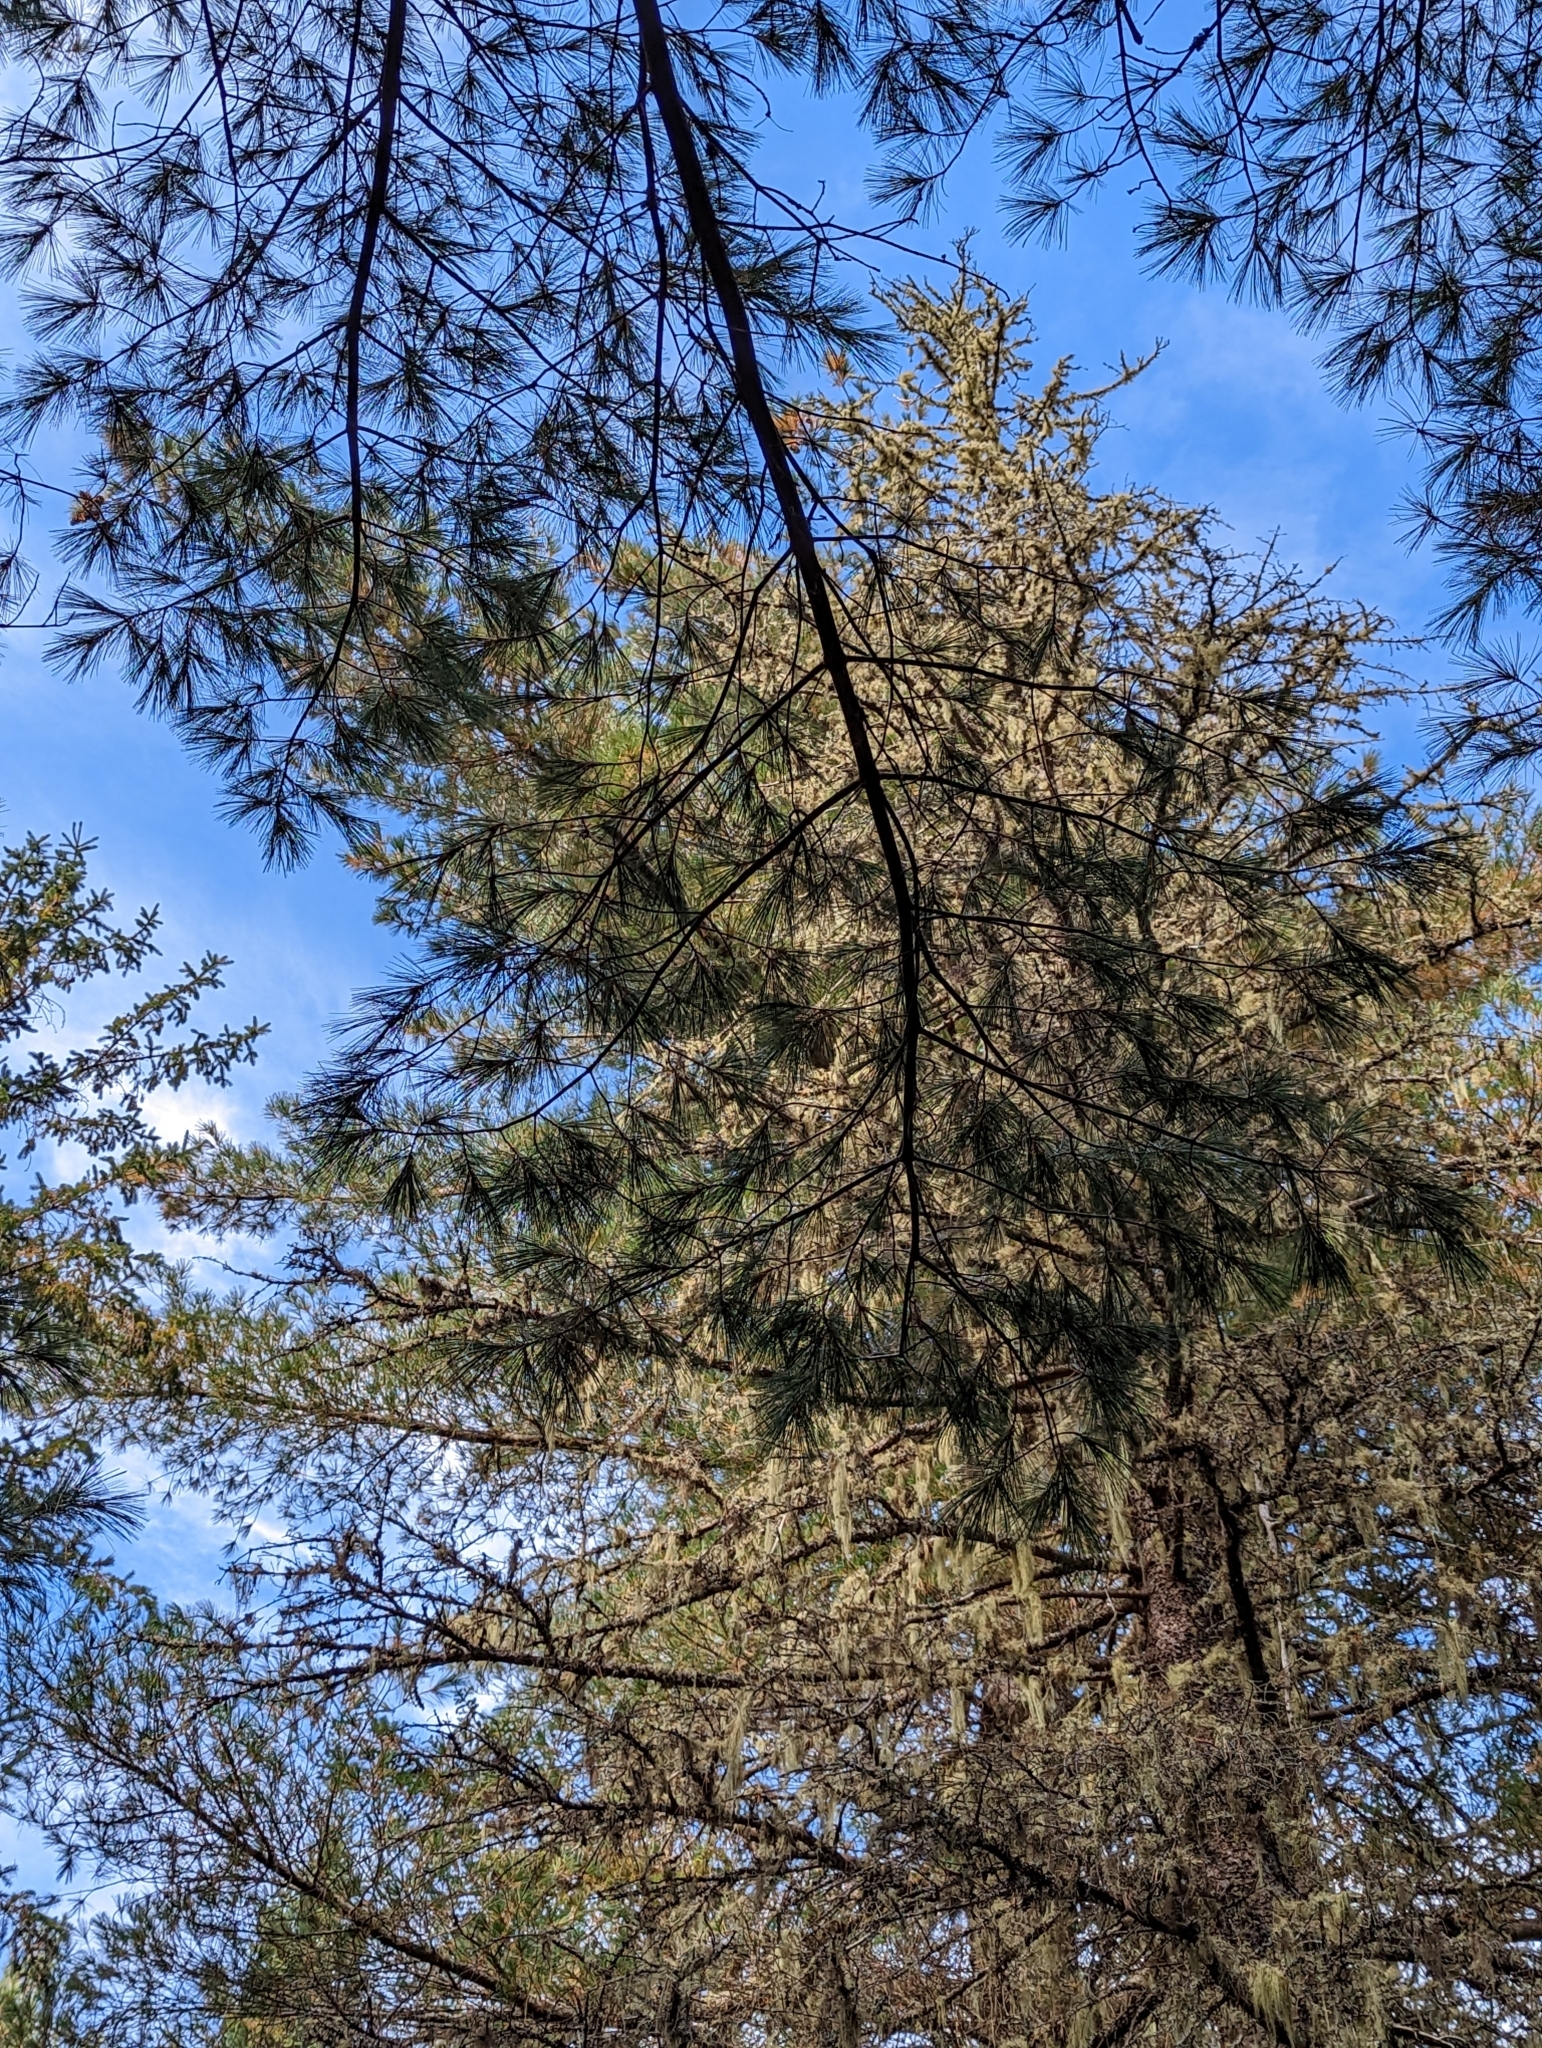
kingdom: Plantae
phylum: Tracheophyta
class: Pinopsida
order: Pinales
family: Pinaceae
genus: Pinus
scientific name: Pinus strobus
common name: Weymouth pine
